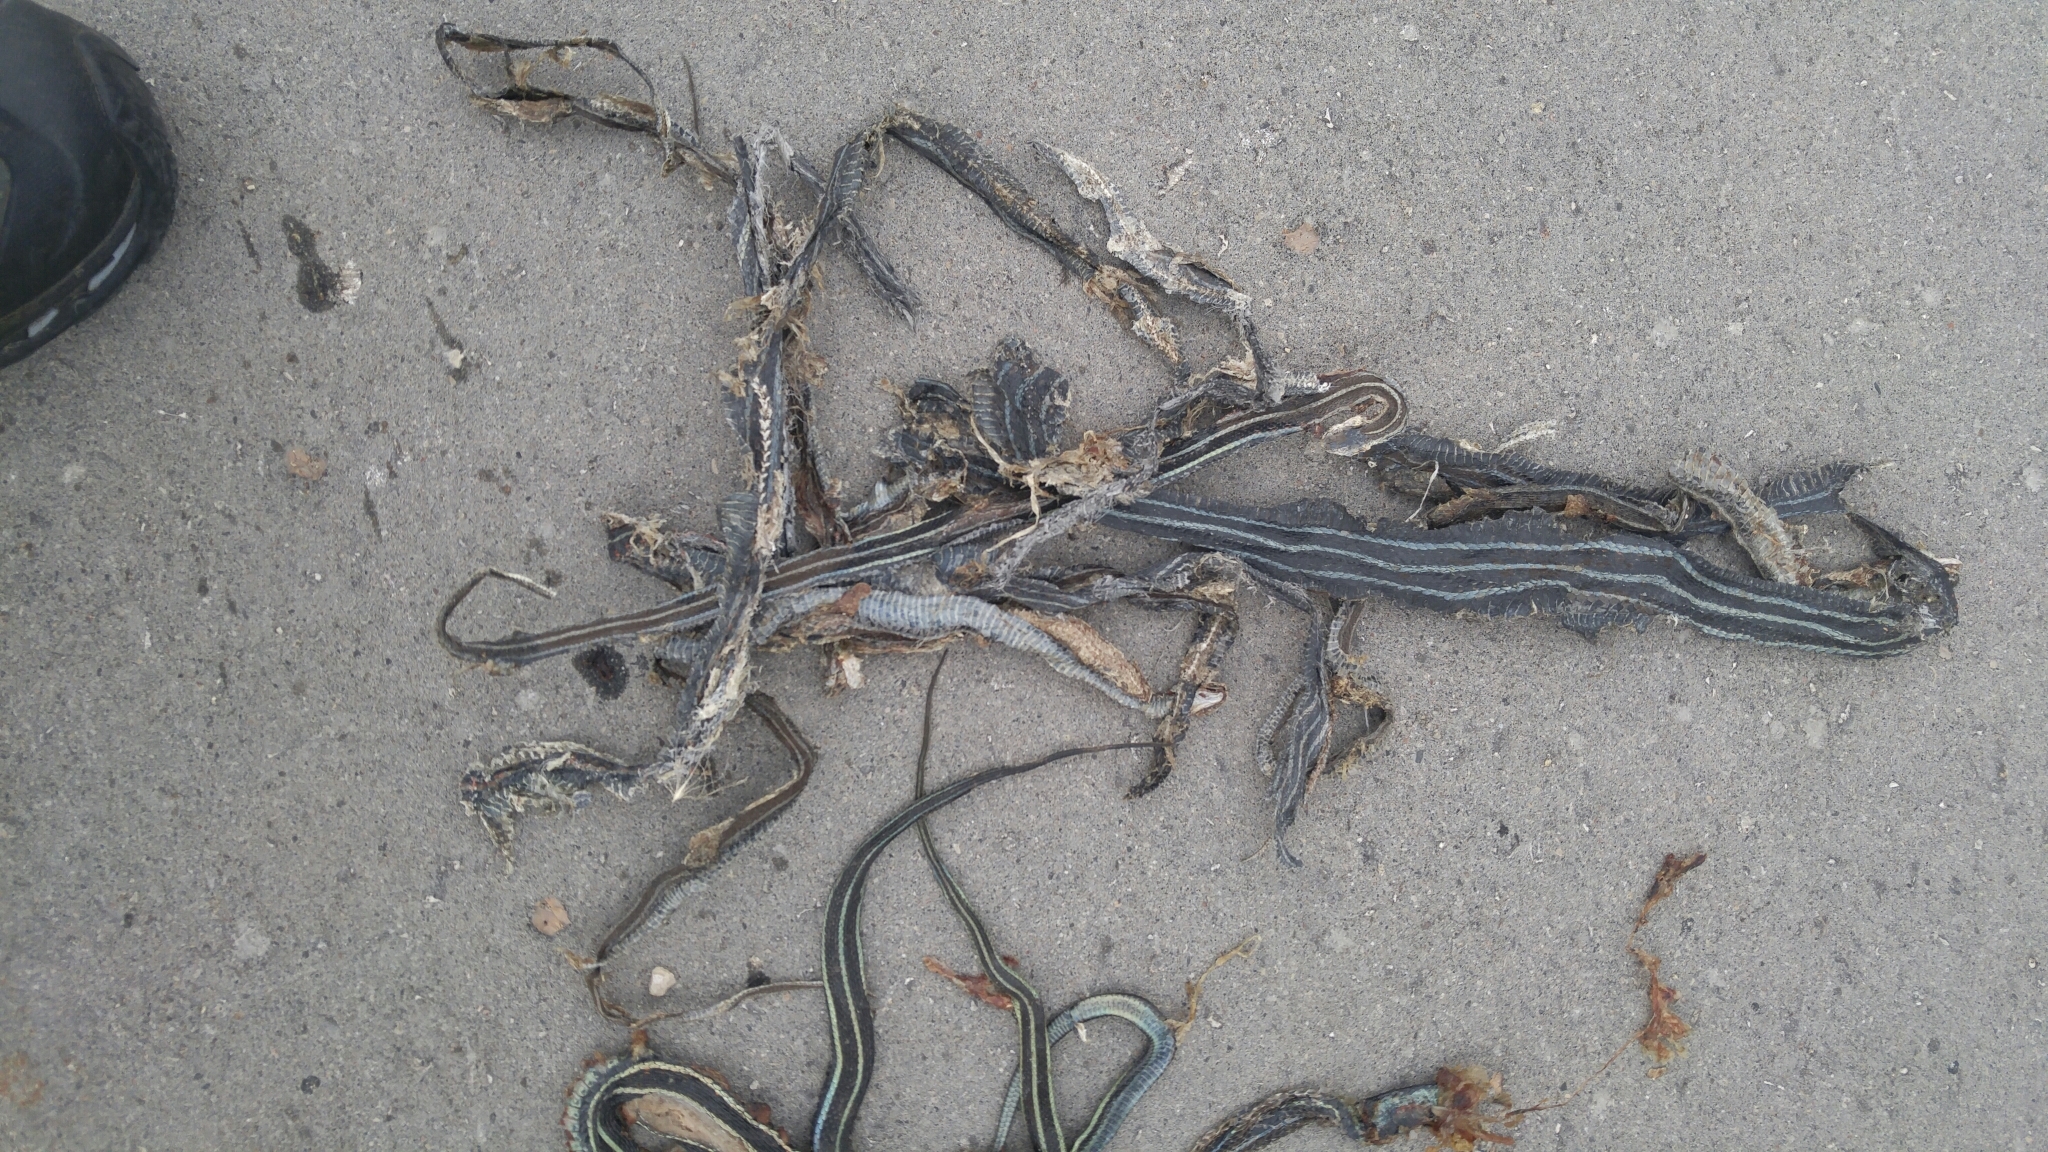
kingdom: Animalia
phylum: Chordata
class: Squamata
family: Colubridae
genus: Thamnophis
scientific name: Thamnophis sirtalis
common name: Common garter snake
